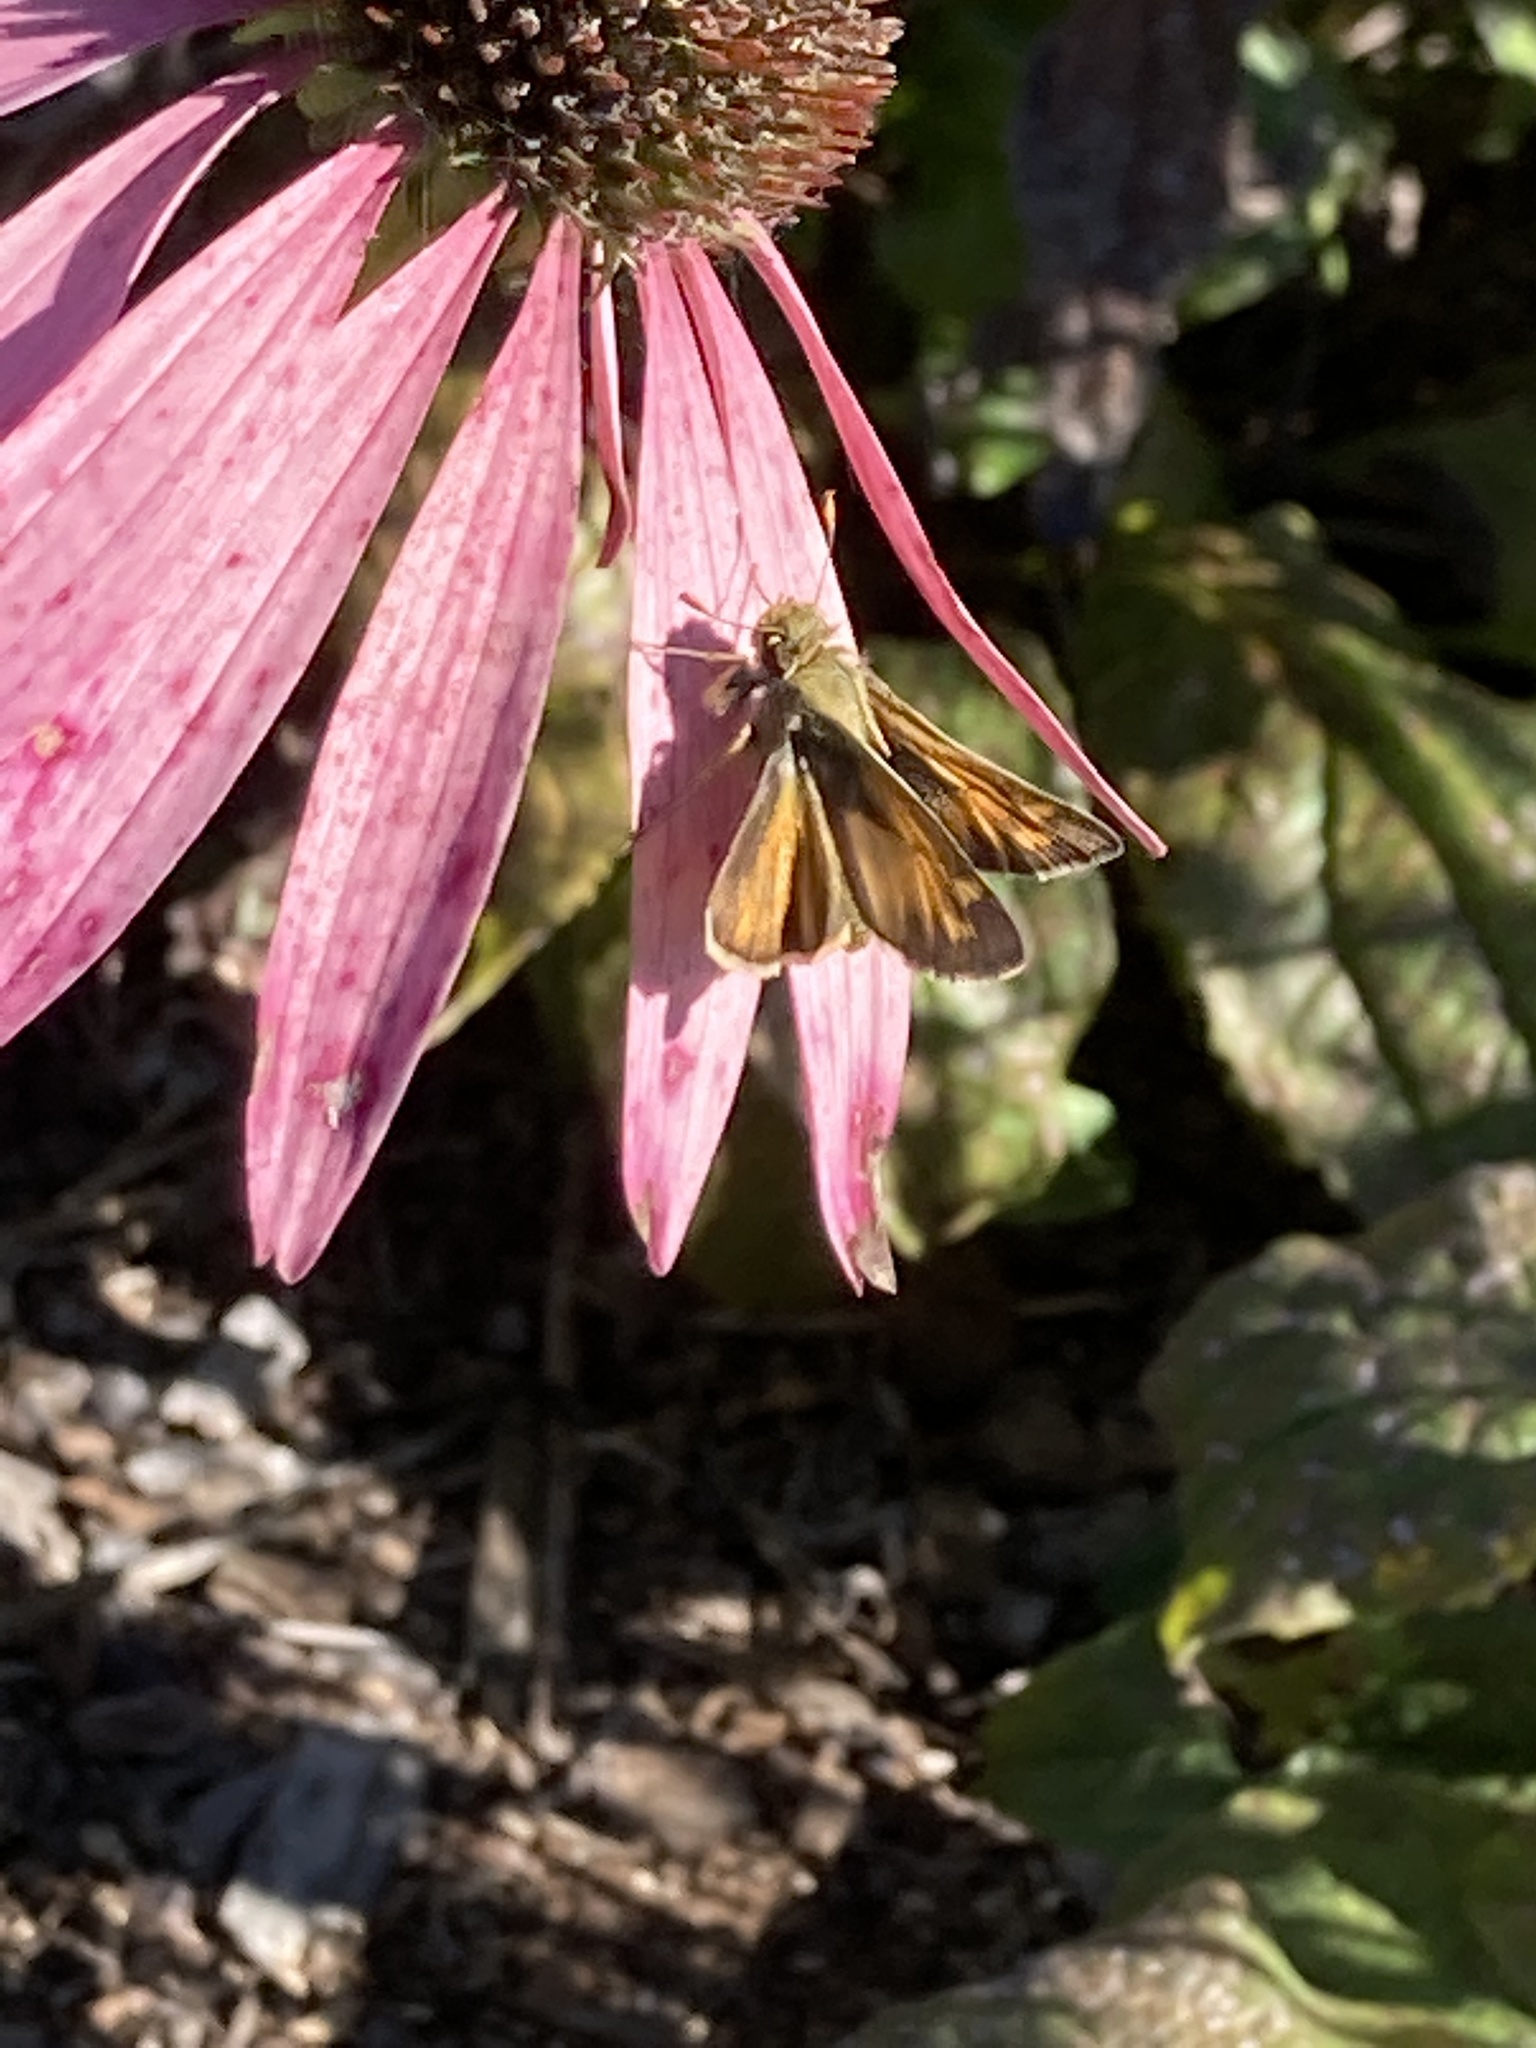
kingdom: Animalia
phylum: Arthropoda
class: Insecta
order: Lepidoptera
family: Hesperiidae
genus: Atalopedes
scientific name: Atalopedes
